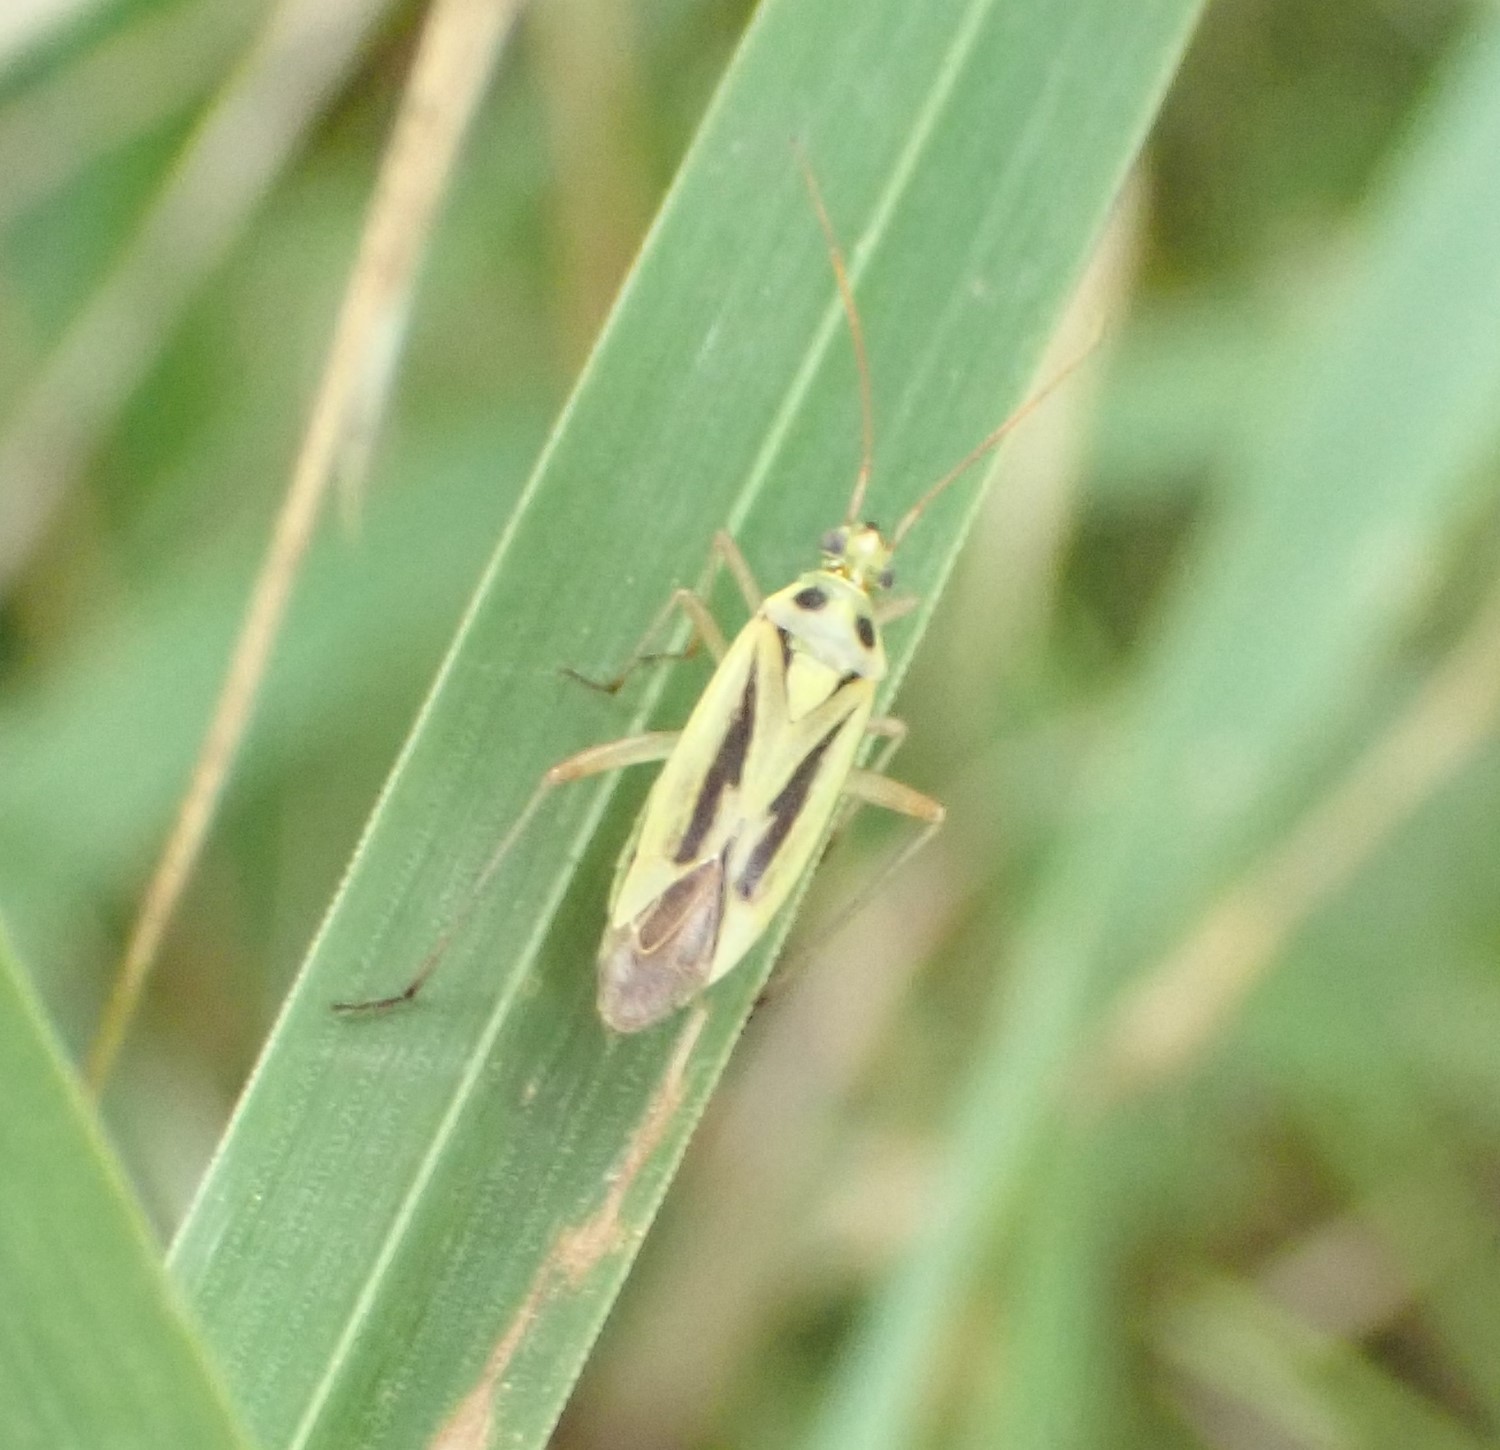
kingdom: Animalia
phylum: Arthropoda
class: Insecta
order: Hemiptera
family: Miridae
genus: Stenotus
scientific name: Stenotus binotatus
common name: Plant bug
